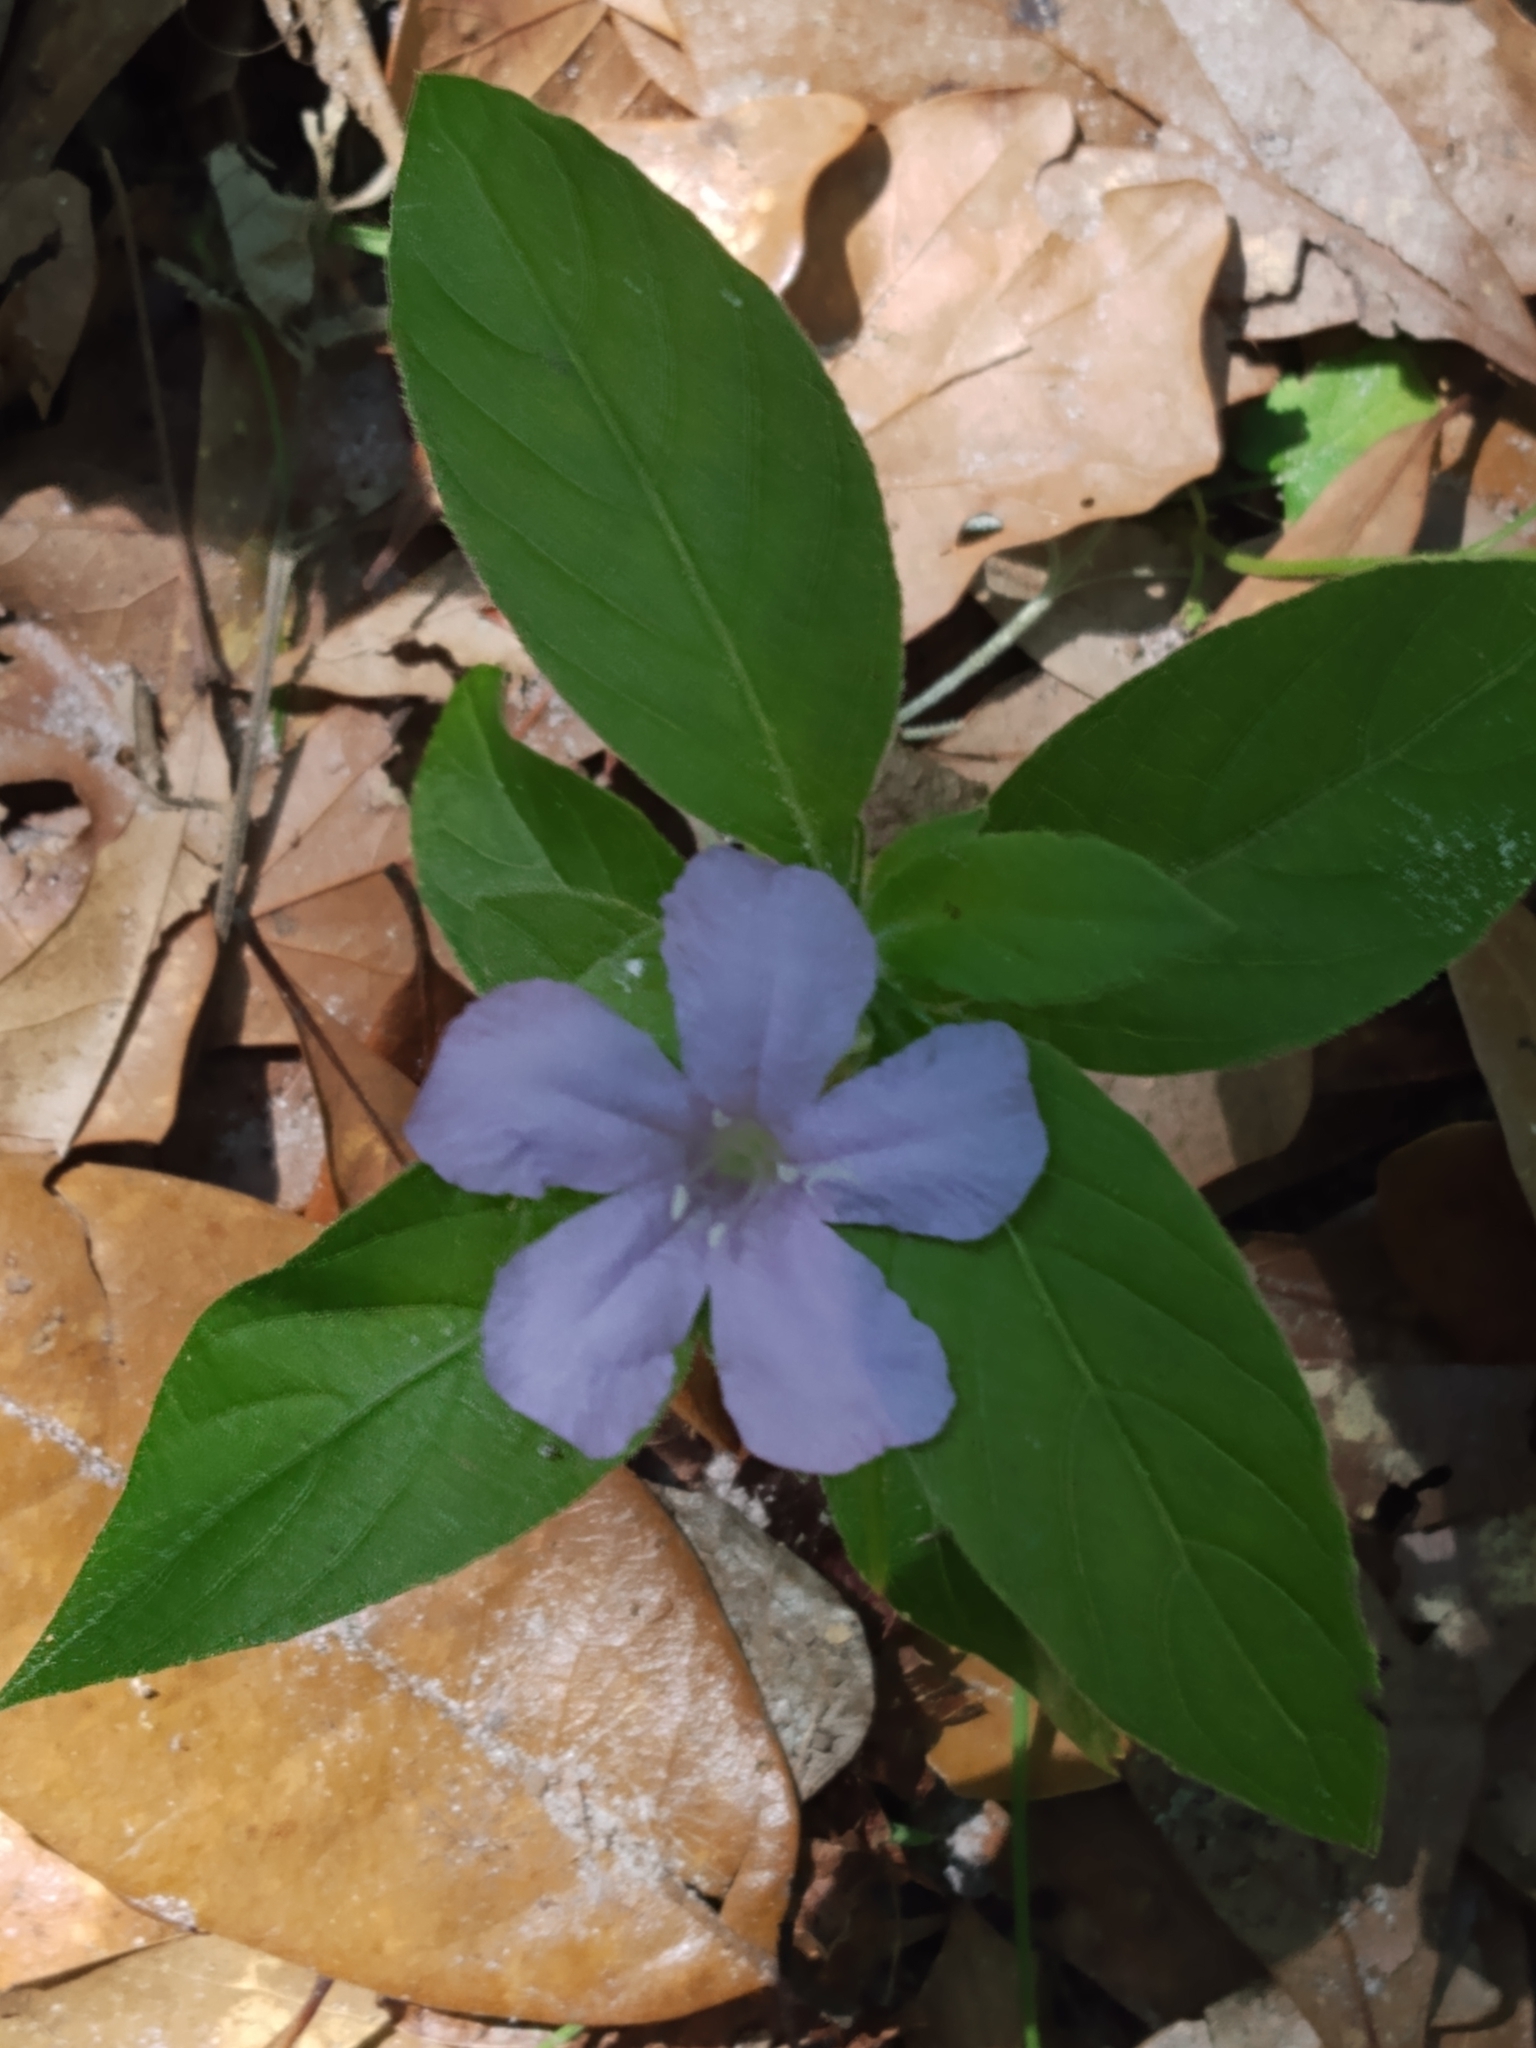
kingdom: Plantae
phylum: Tracheophyta
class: Magnoliopsida
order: Lamiales
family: Acanthaceae
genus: Ruellia
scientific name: Ruellia caroliniensis
